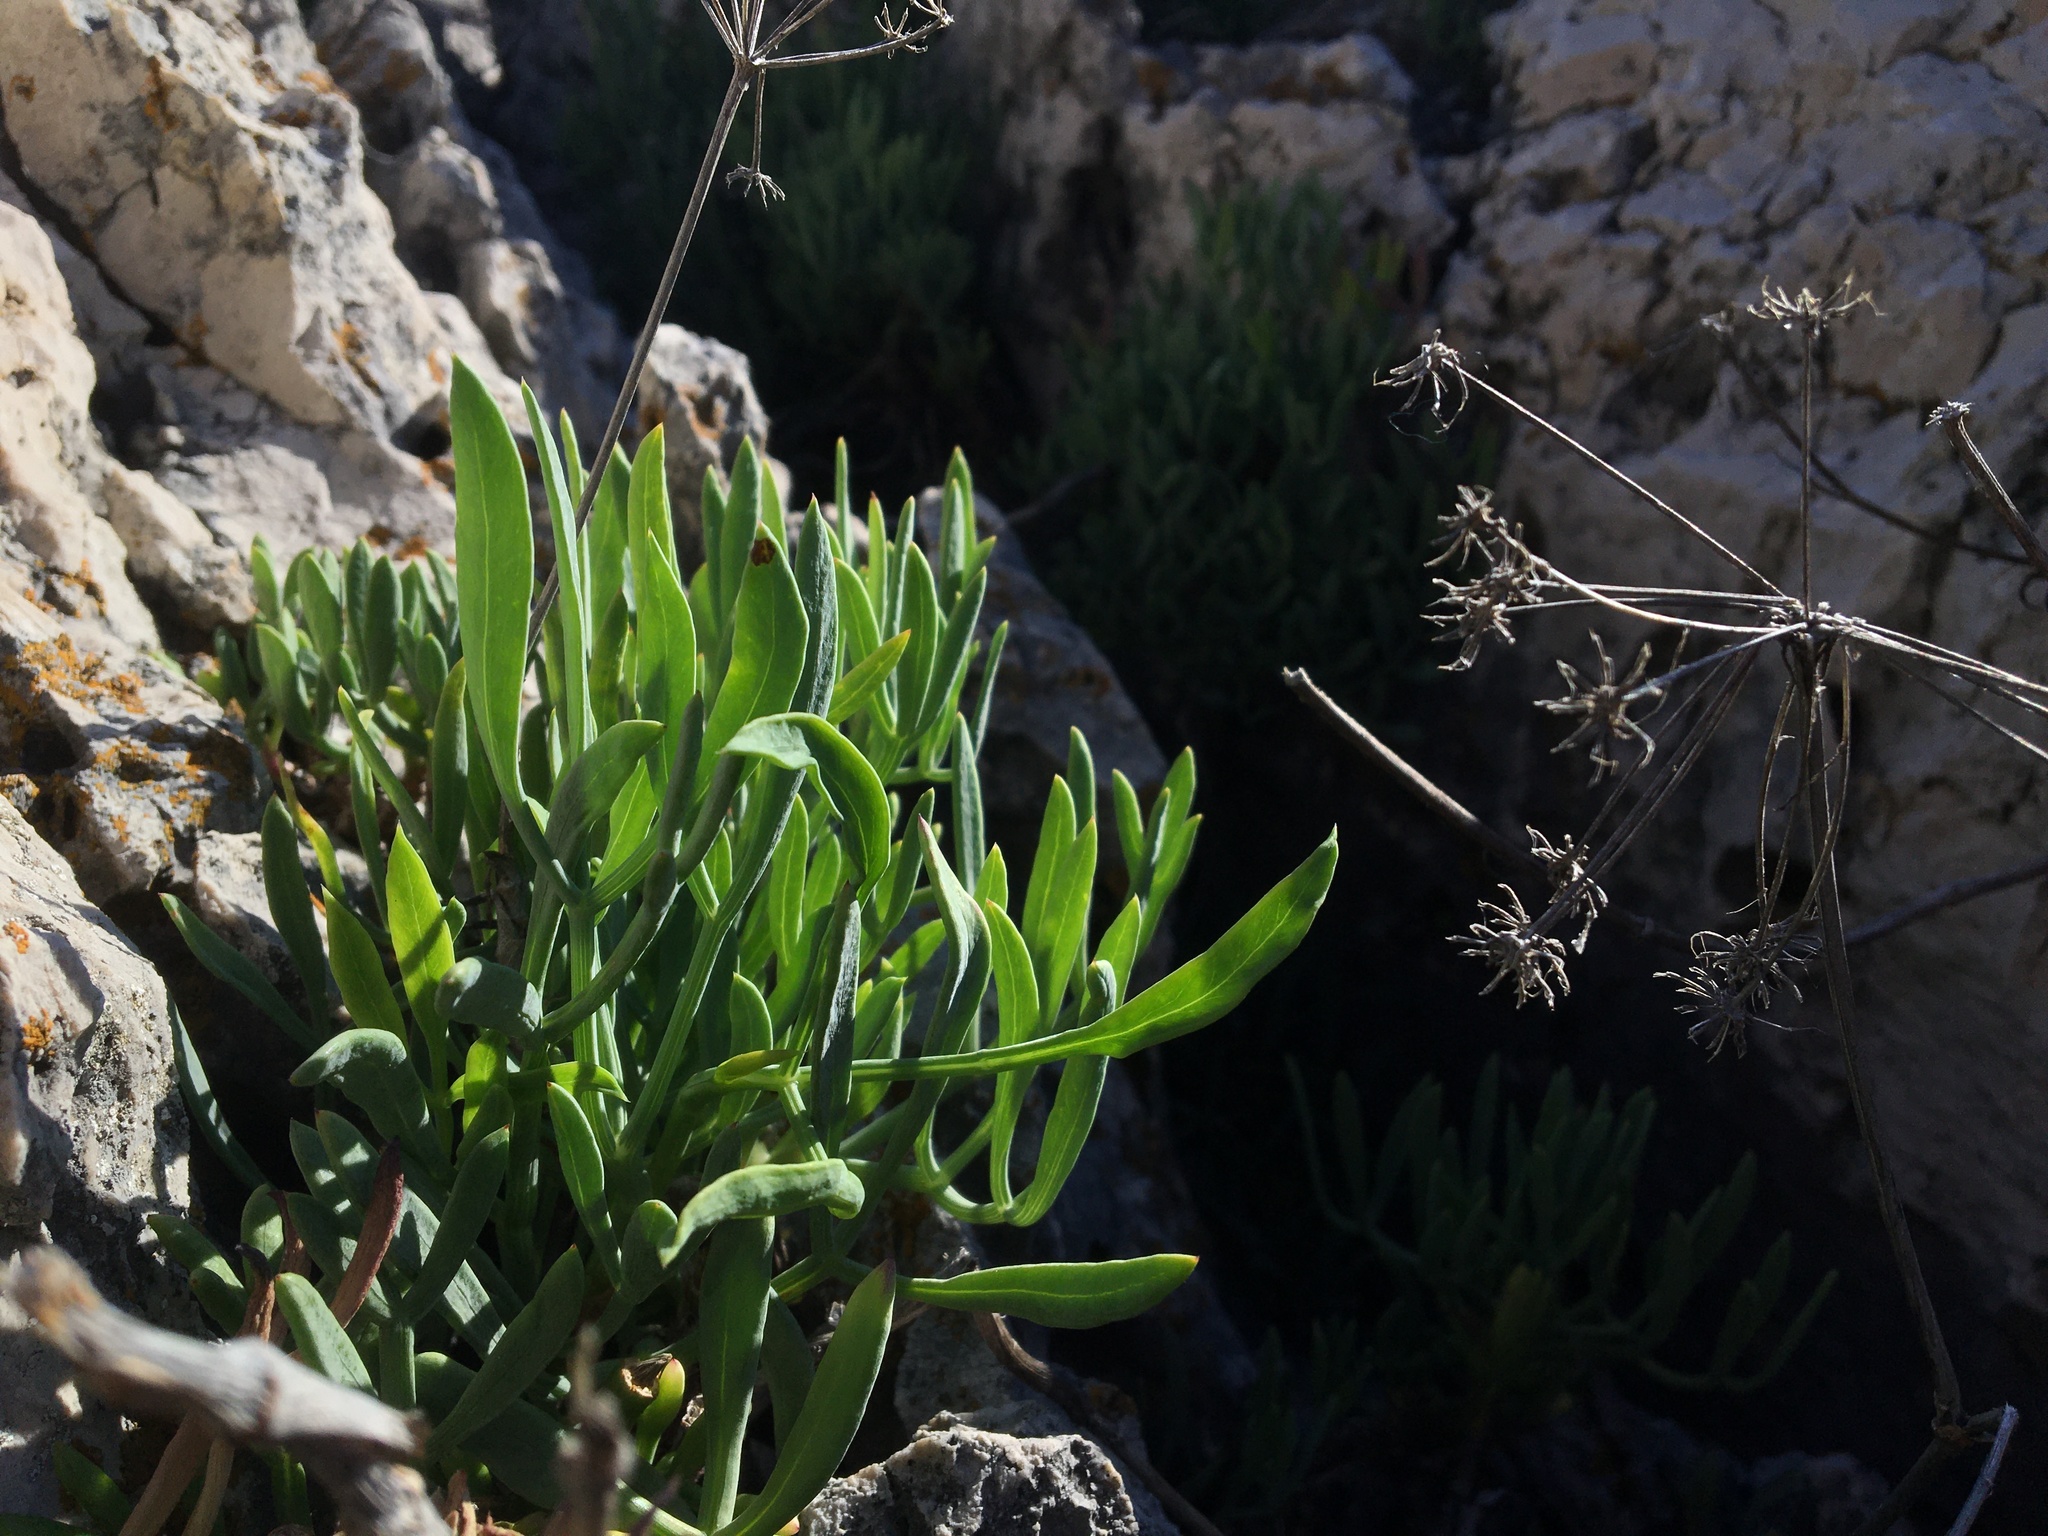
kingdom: Plantae
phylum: Tracheophyta
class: Magnoliopsida
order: Apiales
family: Apiaceae
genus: Crithmum
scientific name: Crithmum maritimum
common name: Rock samphire
